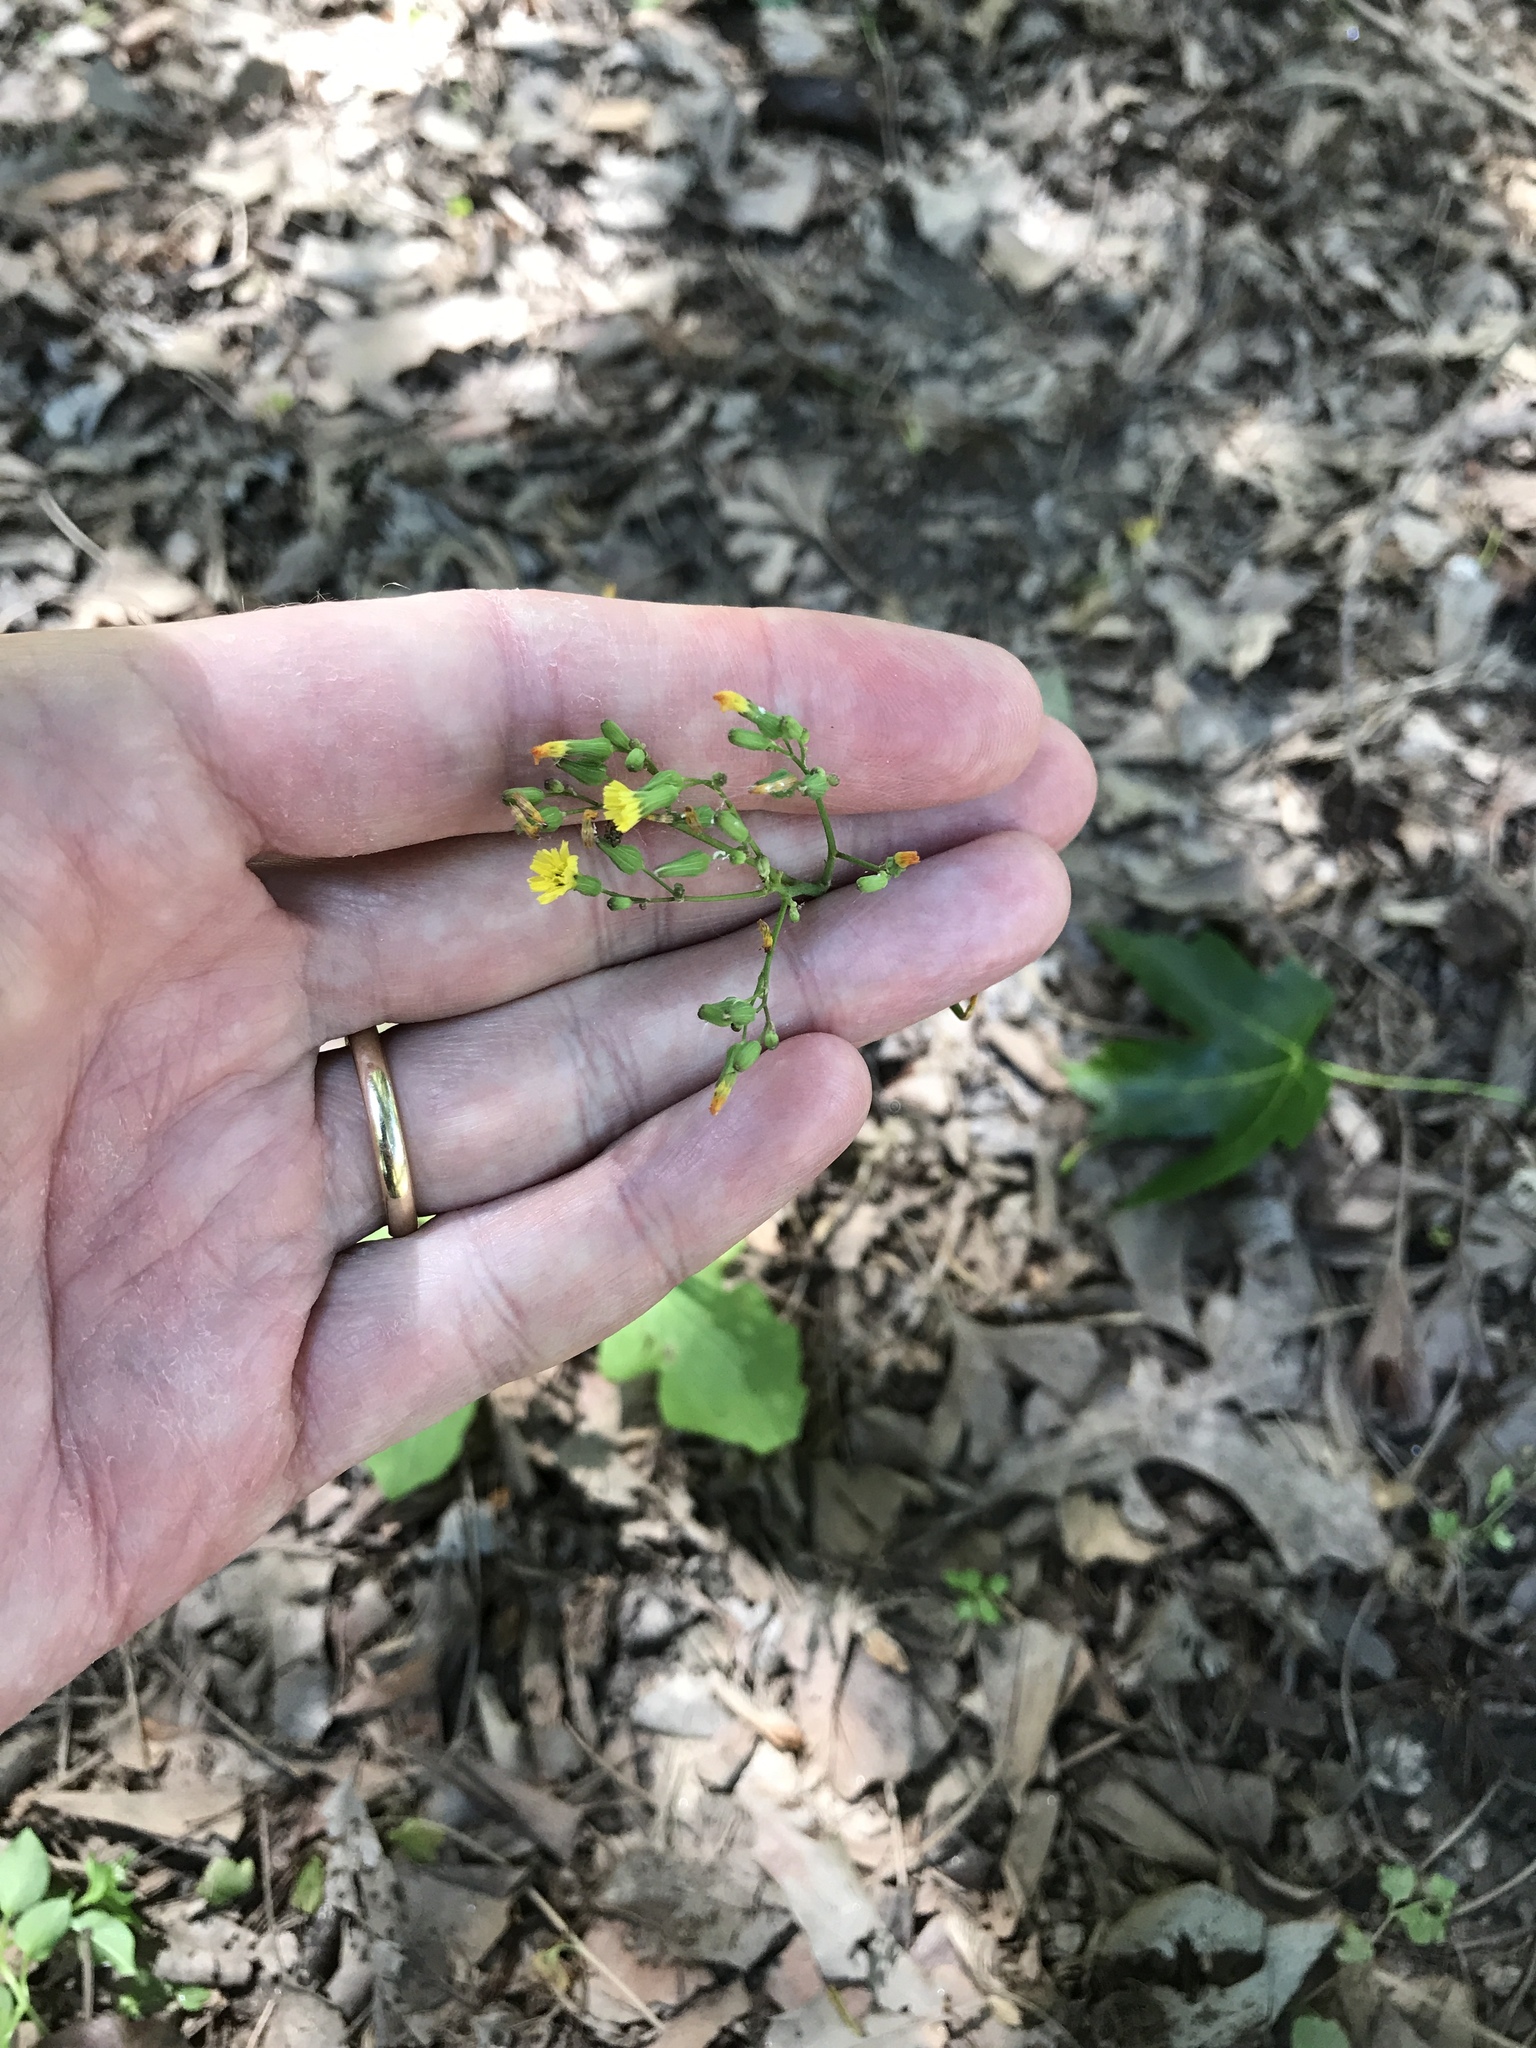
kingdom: Plantae
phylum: Tracheophyta
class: Magnoliopsida
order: Asterales
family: Asteraceae
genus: Youngia
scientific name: Youngia japonica
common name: Oriental false hawksbeard
